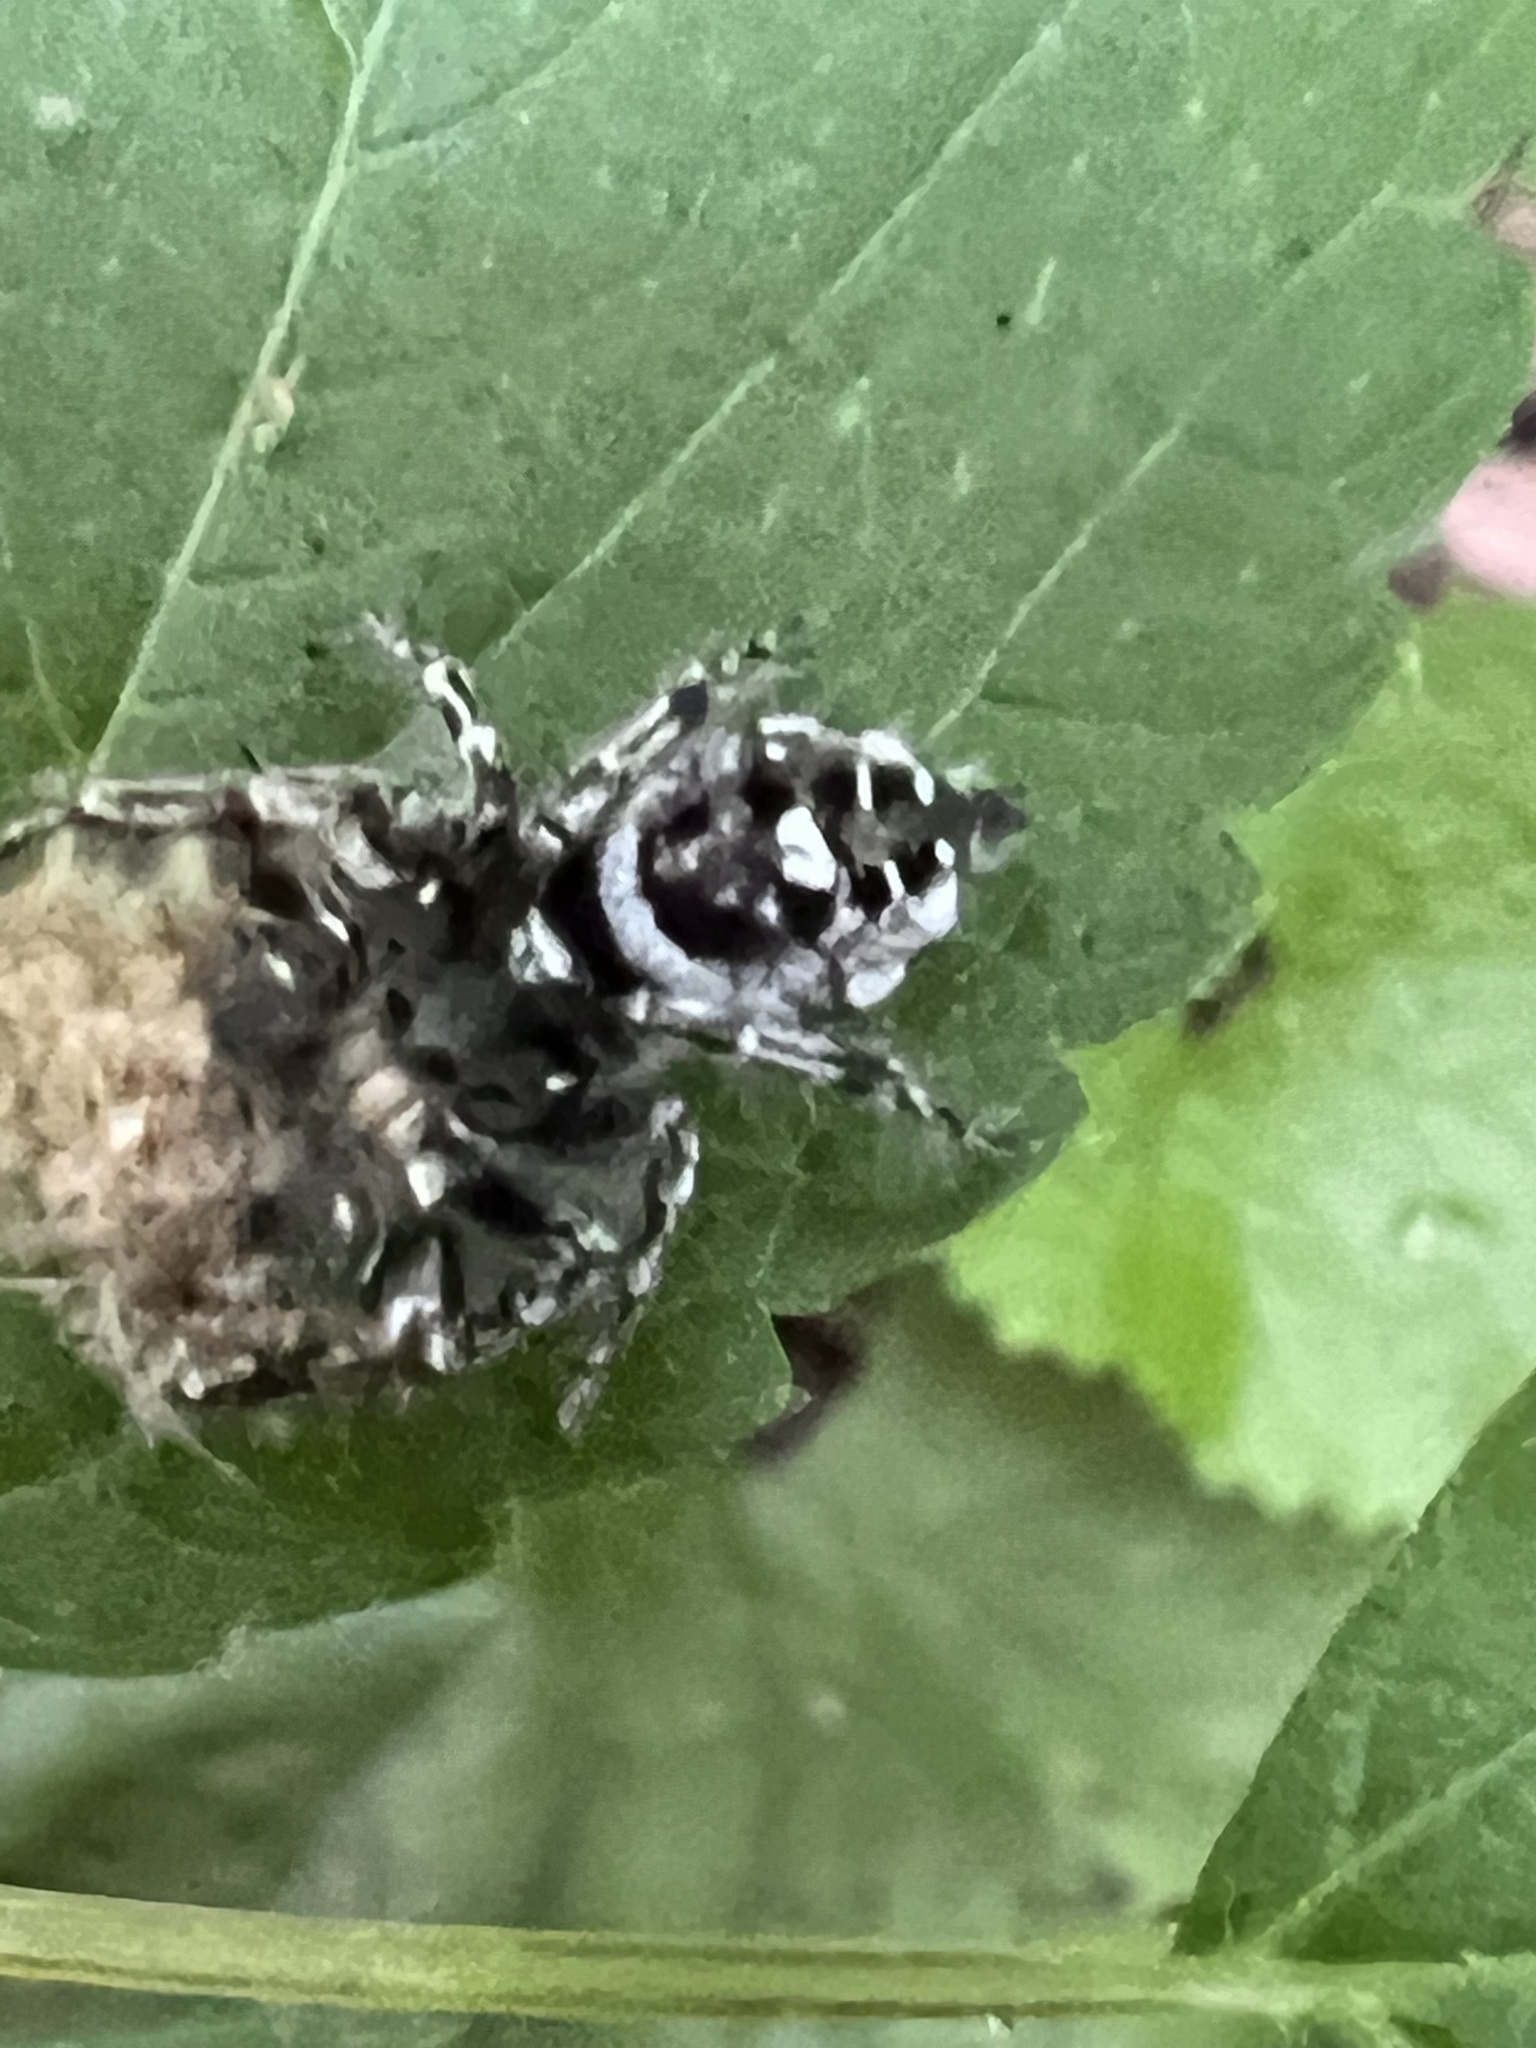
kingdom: Animalia
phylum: Arthropoda
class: Arachnida
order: Araneae
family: Salticidae
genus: Phidippus
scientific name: Phidippus putnami
